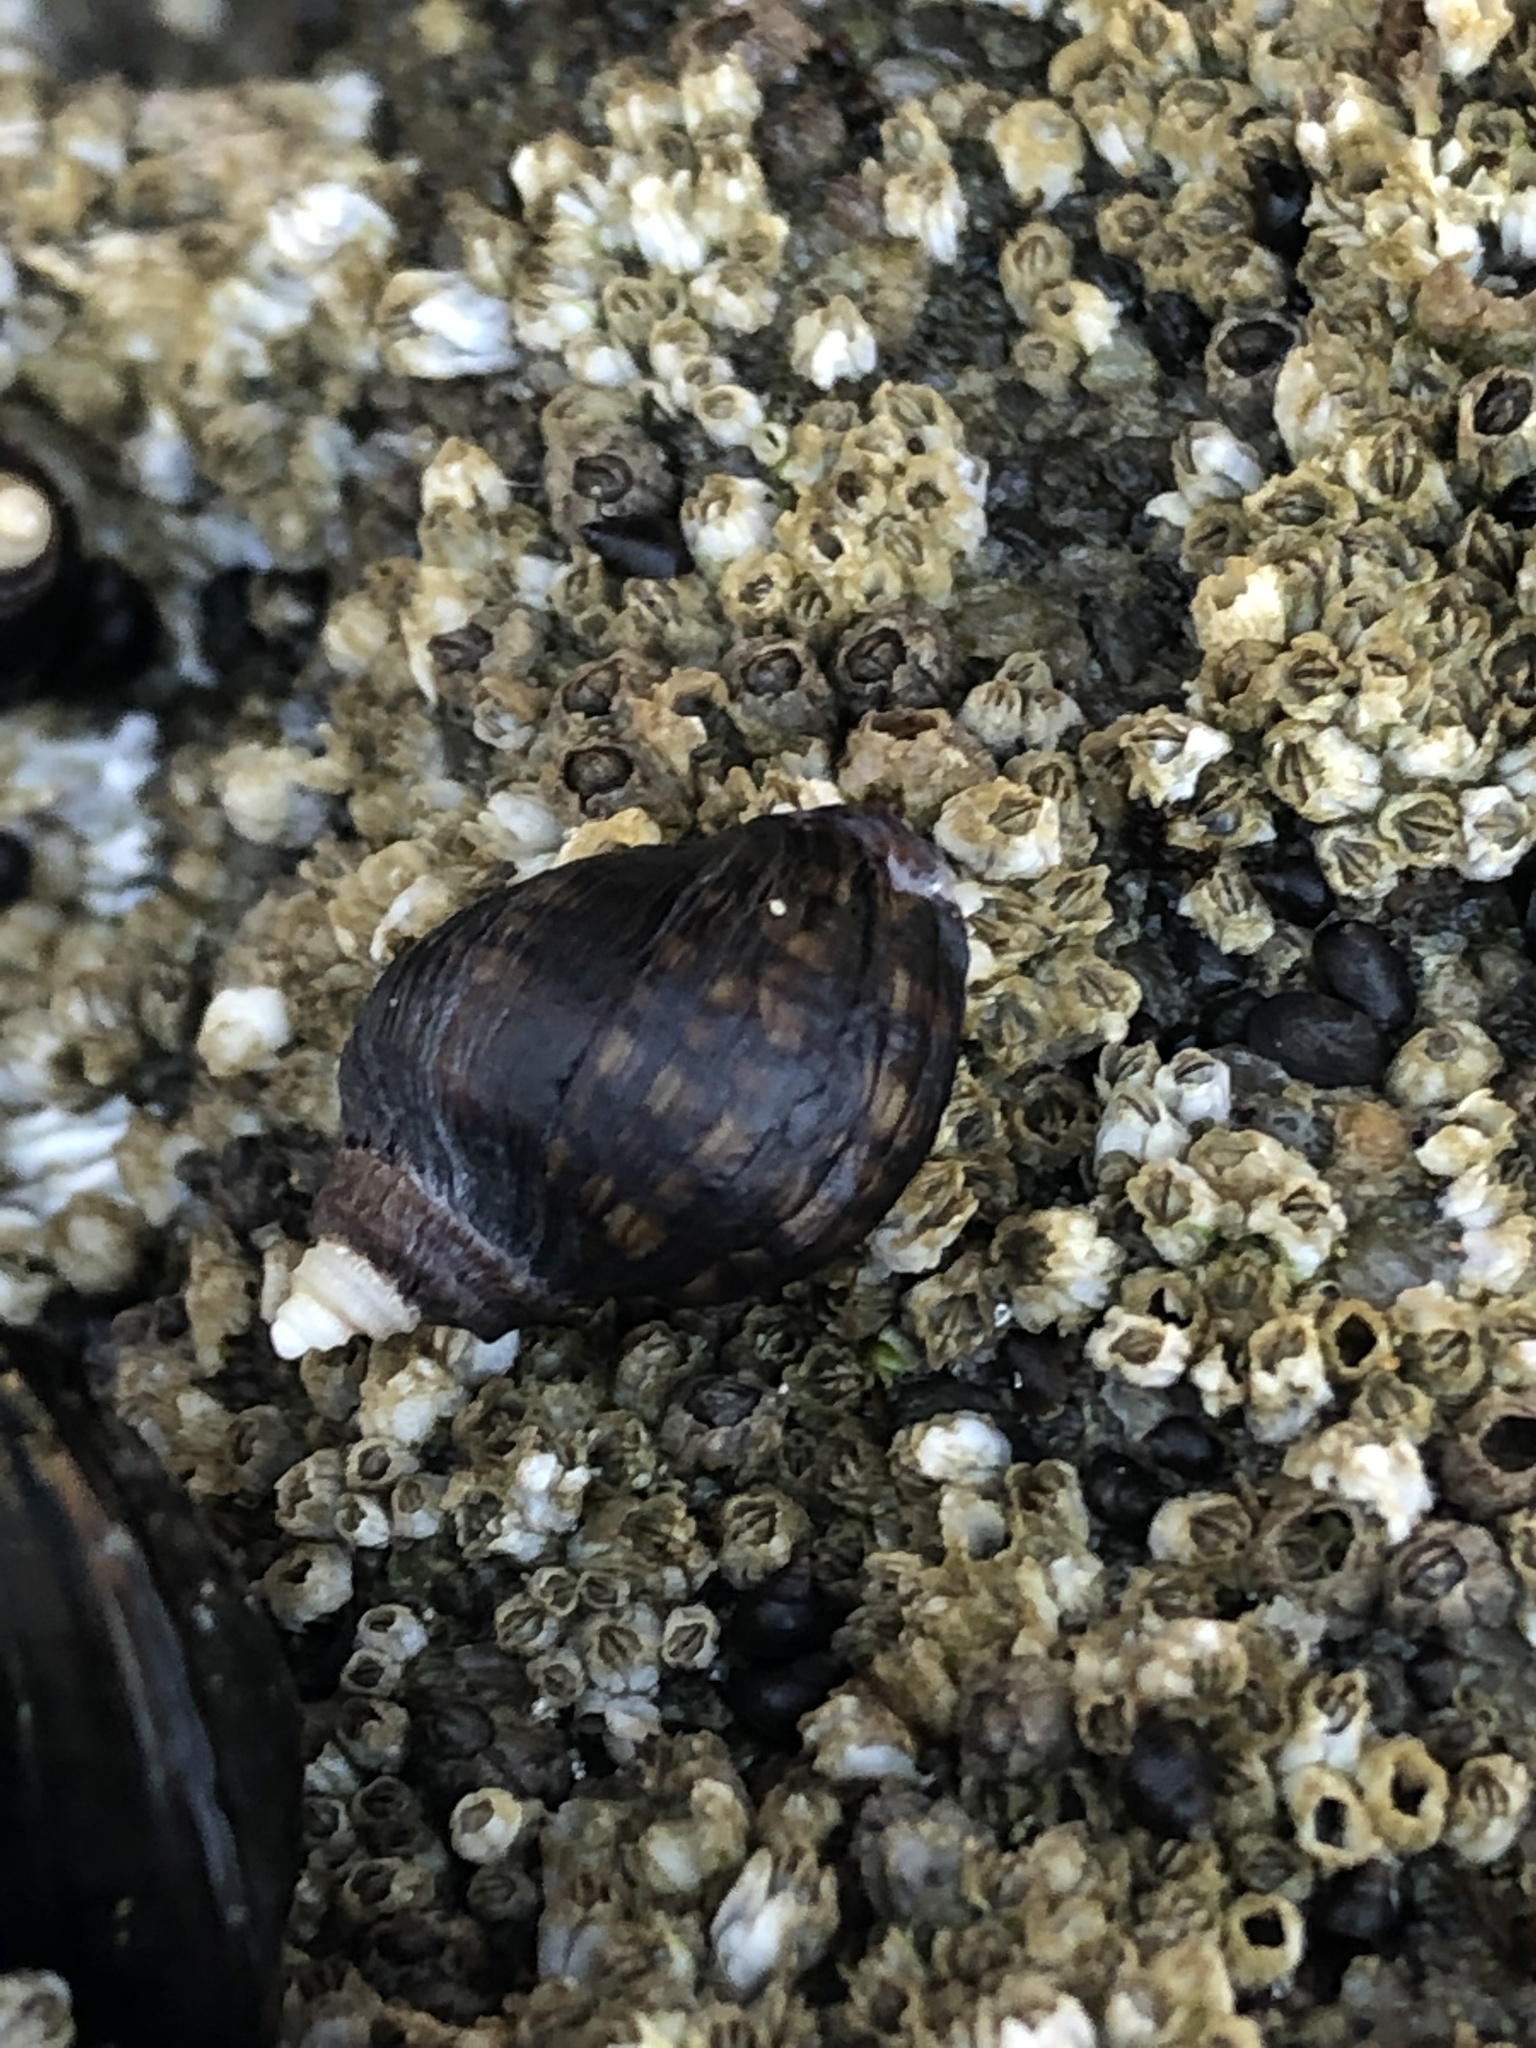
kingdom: Animalia
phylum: Mollusca
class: Gastropoda
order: Neogastropoda
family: Muricidae
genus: Nucella
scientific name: Nucella ostrina
